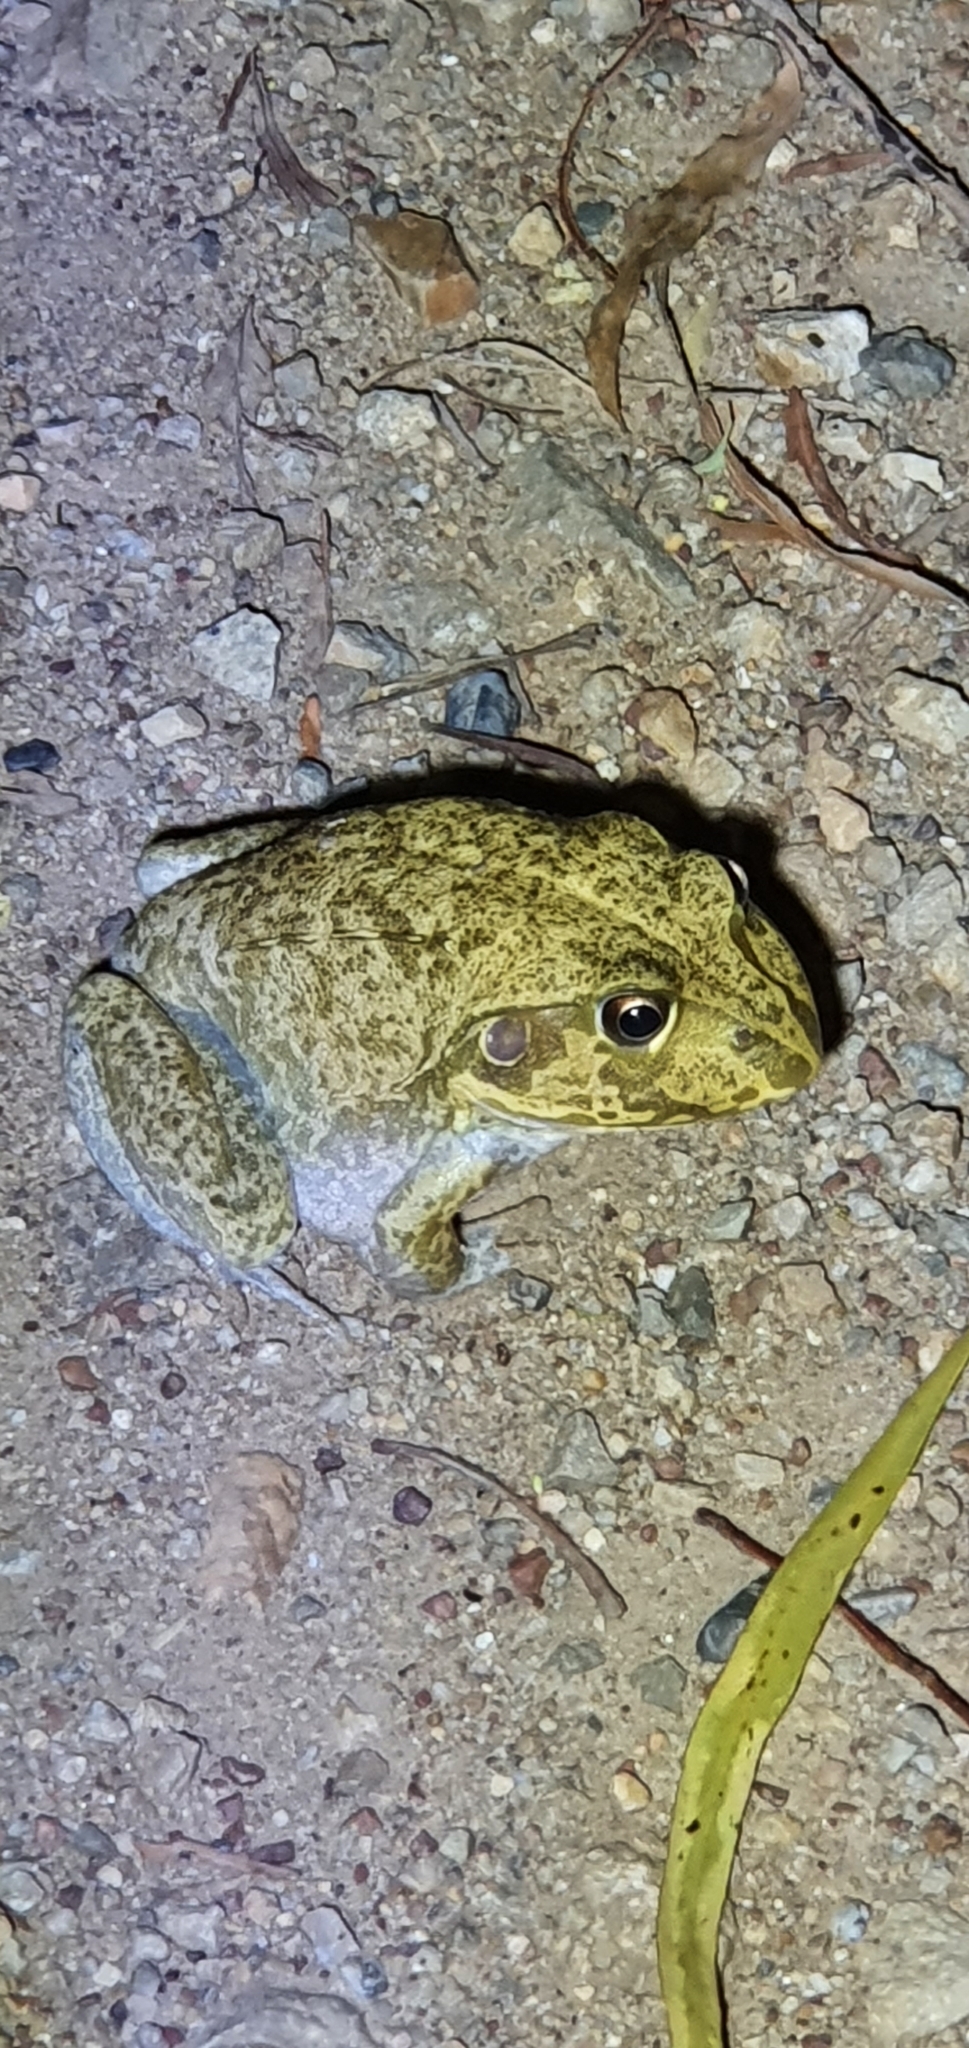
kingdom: Animalia
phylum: Chordata
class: Amphibia
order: Anura
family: Pelodryadidae
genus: Ranoidea
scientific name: Ranoidea novaehollandiae
